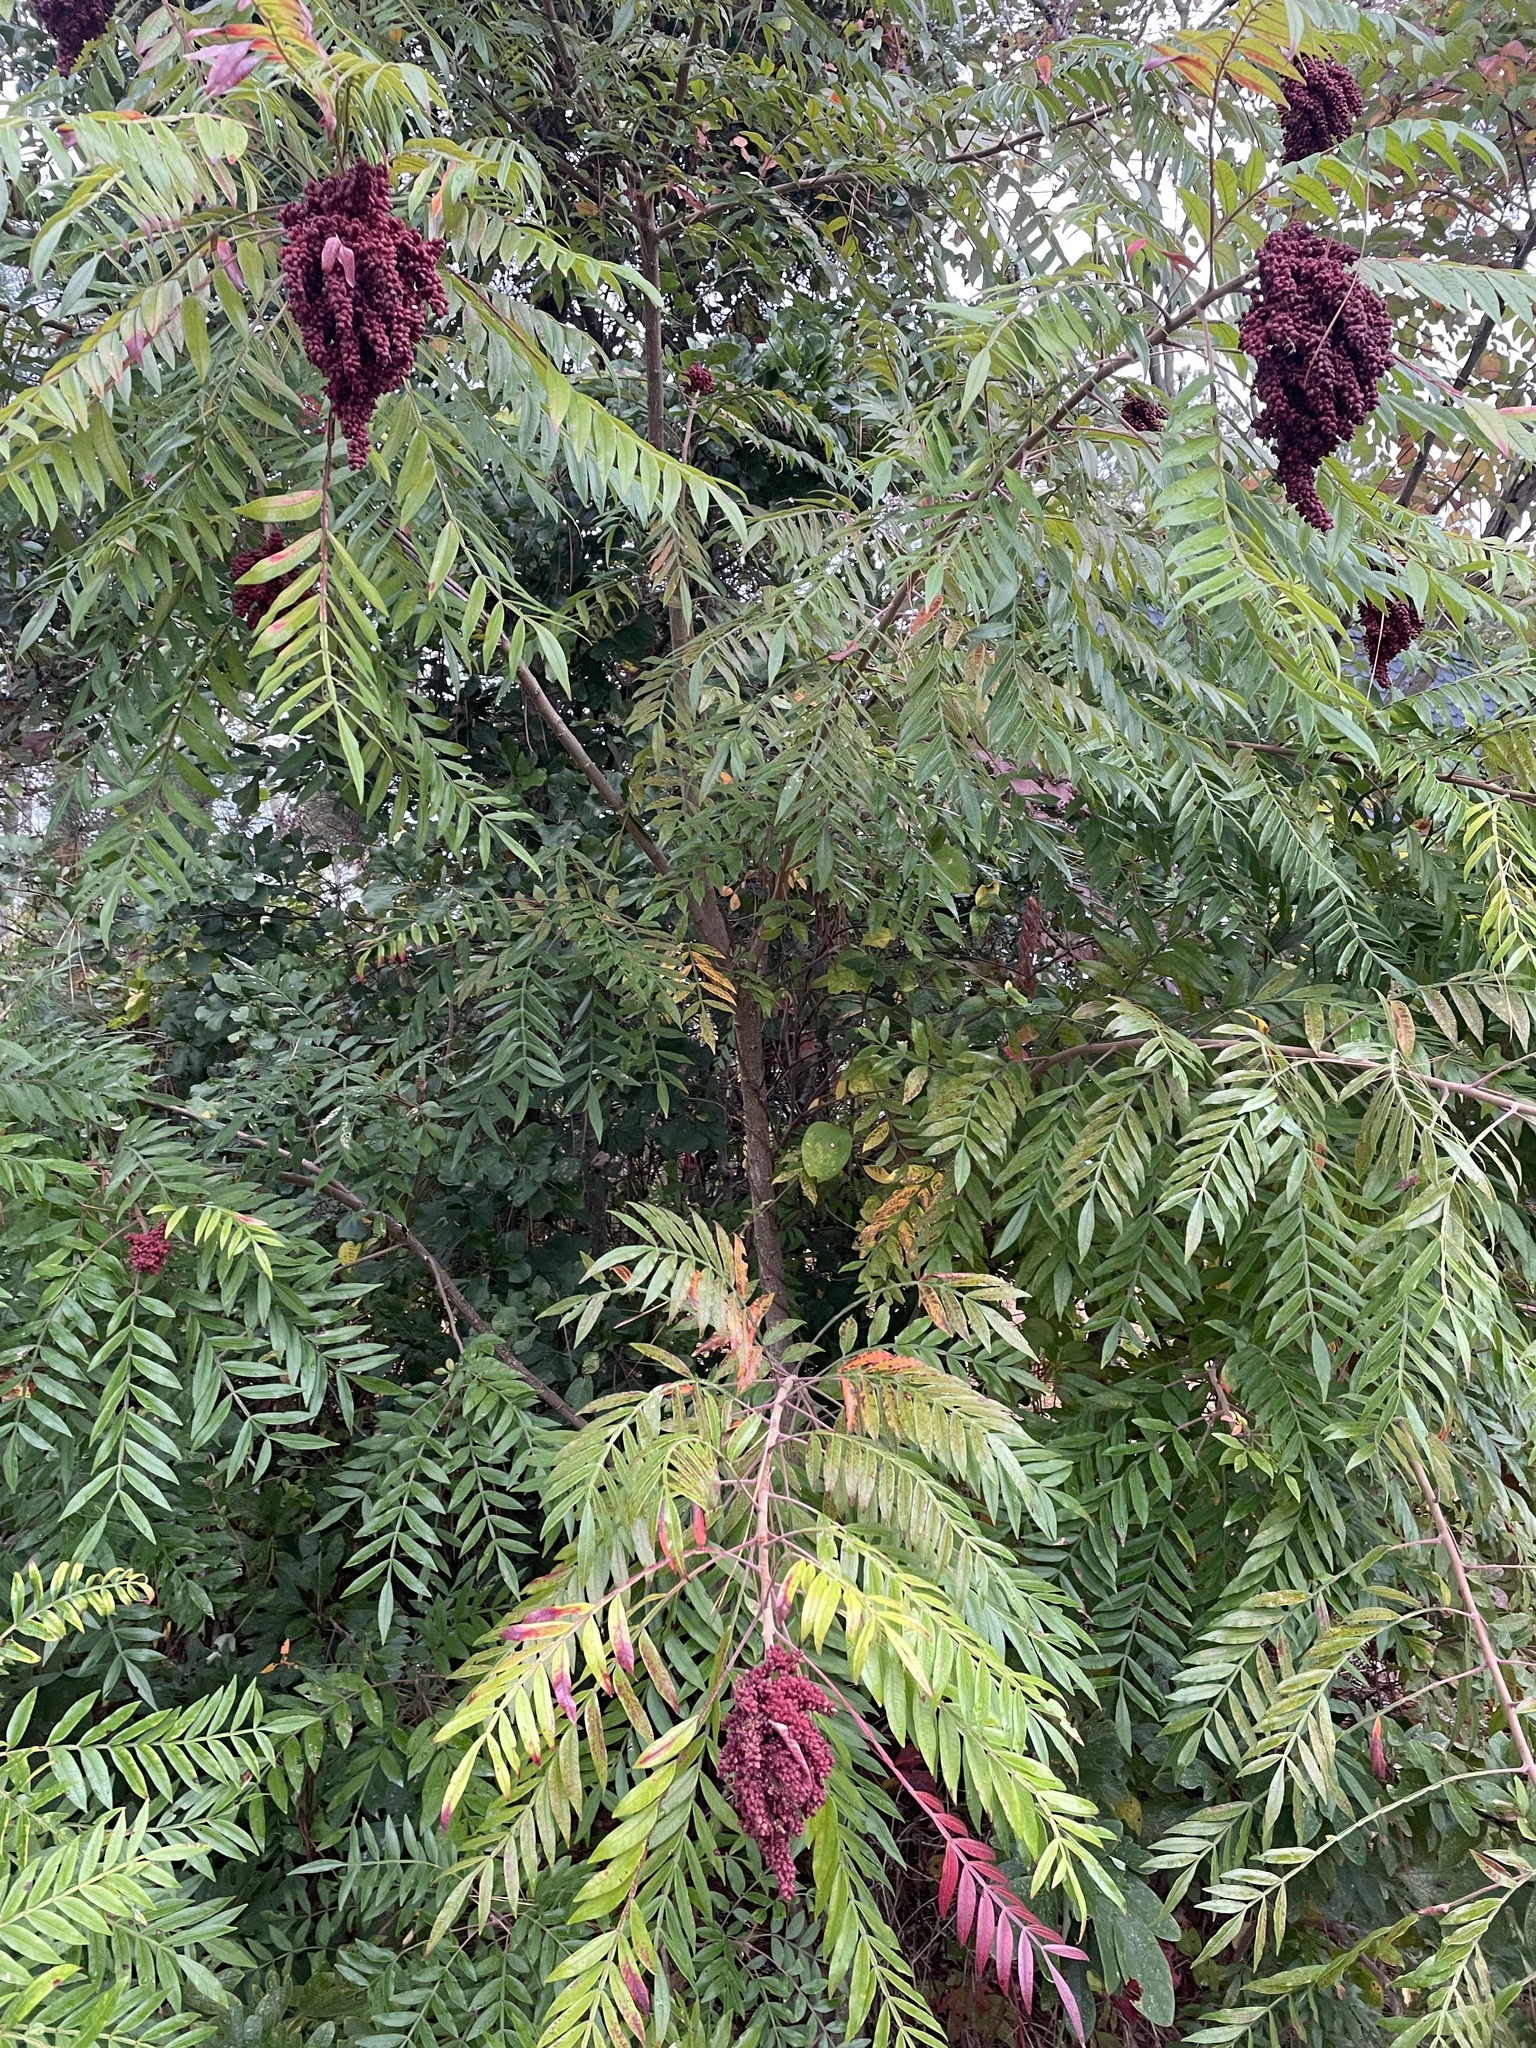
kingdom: Plantae
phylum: Tracheophyta
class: Magnoliopsida
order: Sapindales
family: Anacardiaceae
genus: Rhus
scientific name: Rhus copallina
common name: Shining sumac
